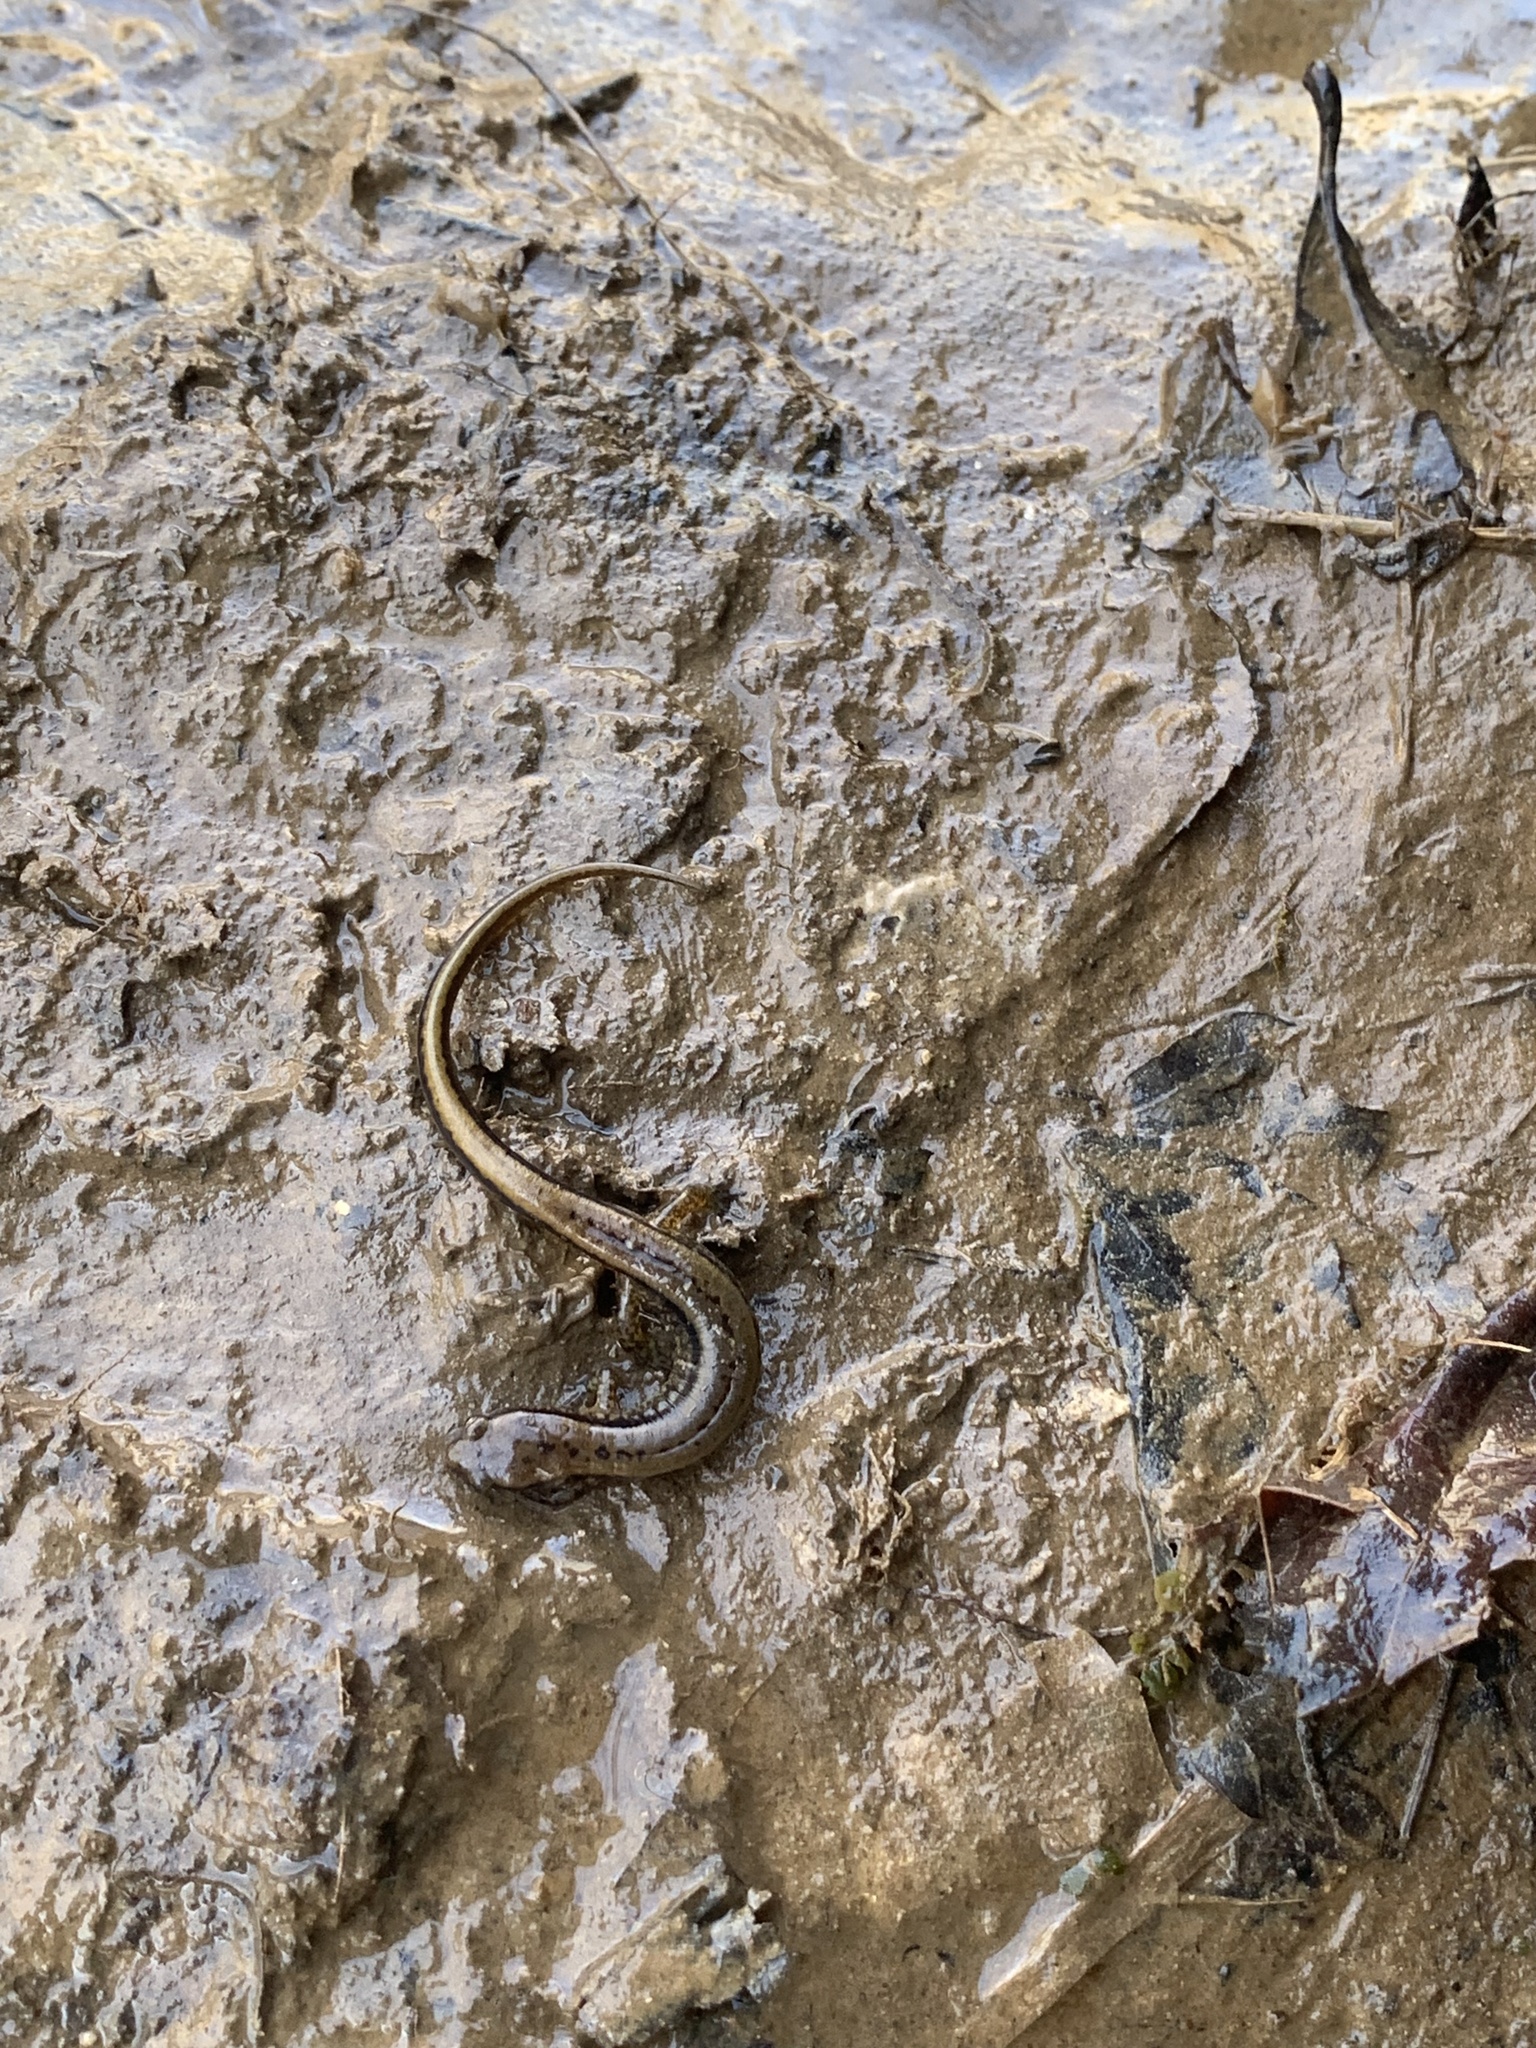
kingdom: Animalia
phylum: Chordata
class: Amphibia
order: Caudata
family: Plethodontidae
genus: Eurycea
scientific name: Eurycea cirrigera
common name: Southern two-lined salamander
